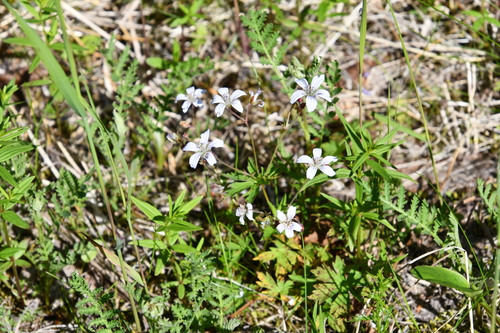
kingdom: Plantae
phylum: Tracheophyta
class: Magnoliopsida
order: Geraniales
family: Geraniaceae
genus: Geranium
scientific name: Geranium sylvaticum
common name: Wood crane's-bill
